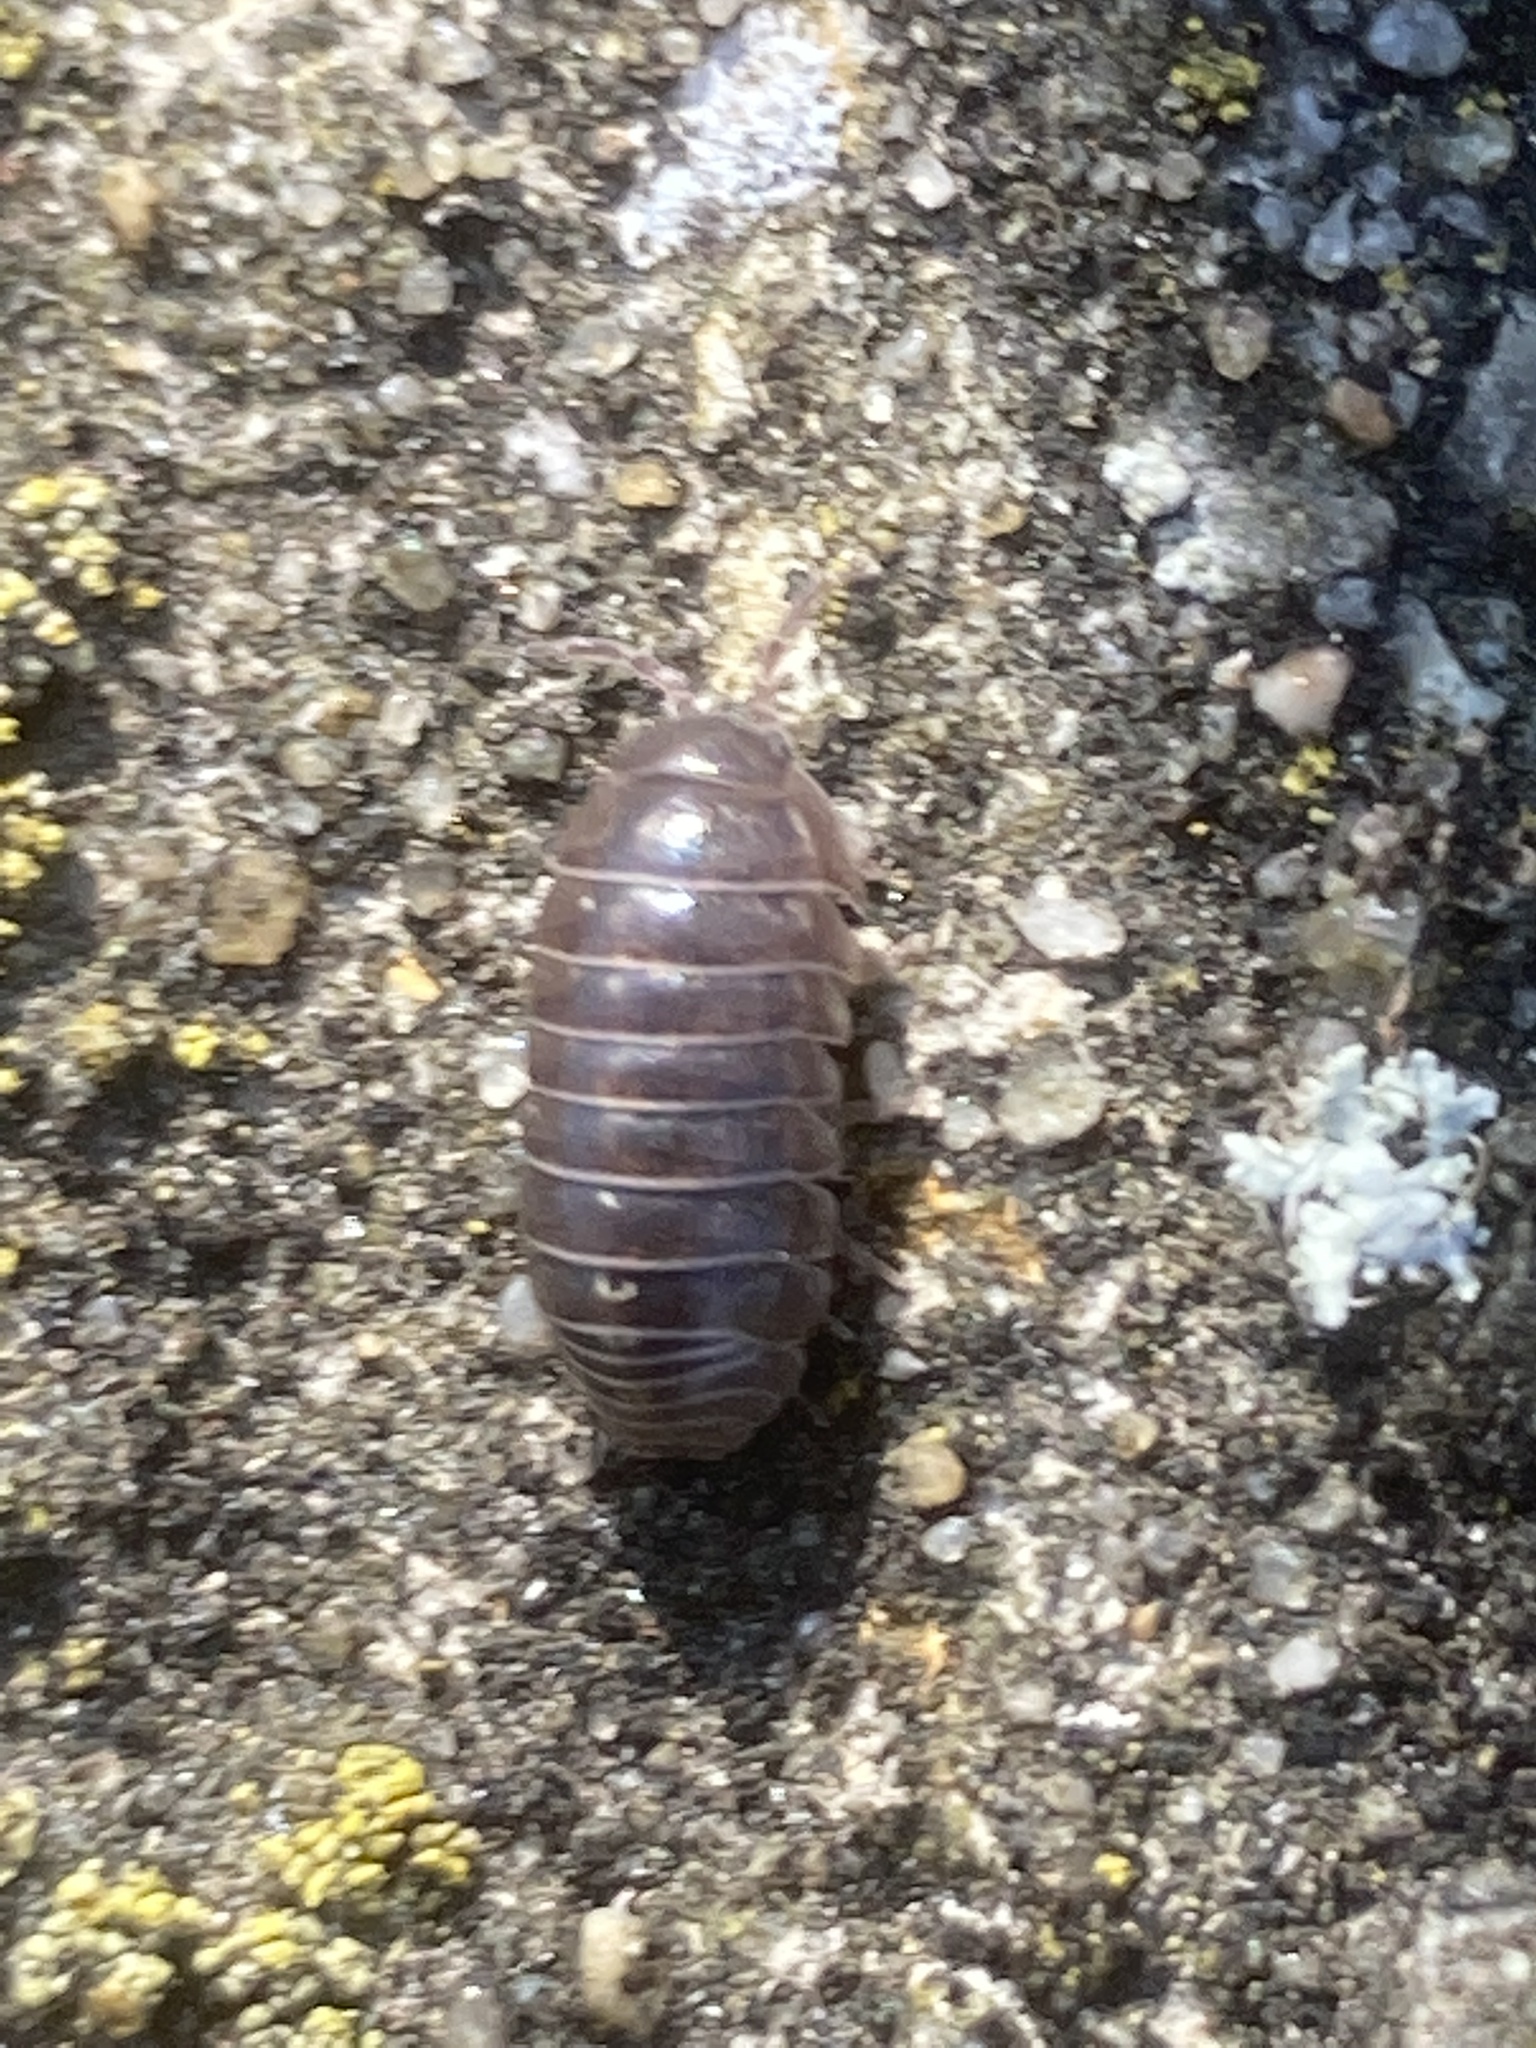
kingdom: Animalia
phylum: Arthropoda
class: Malacostraca
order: Isopoda
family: Armadillidiidae
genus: Armadillidium
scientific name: Armadillidium vulgare
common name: Common pill woodlouse
